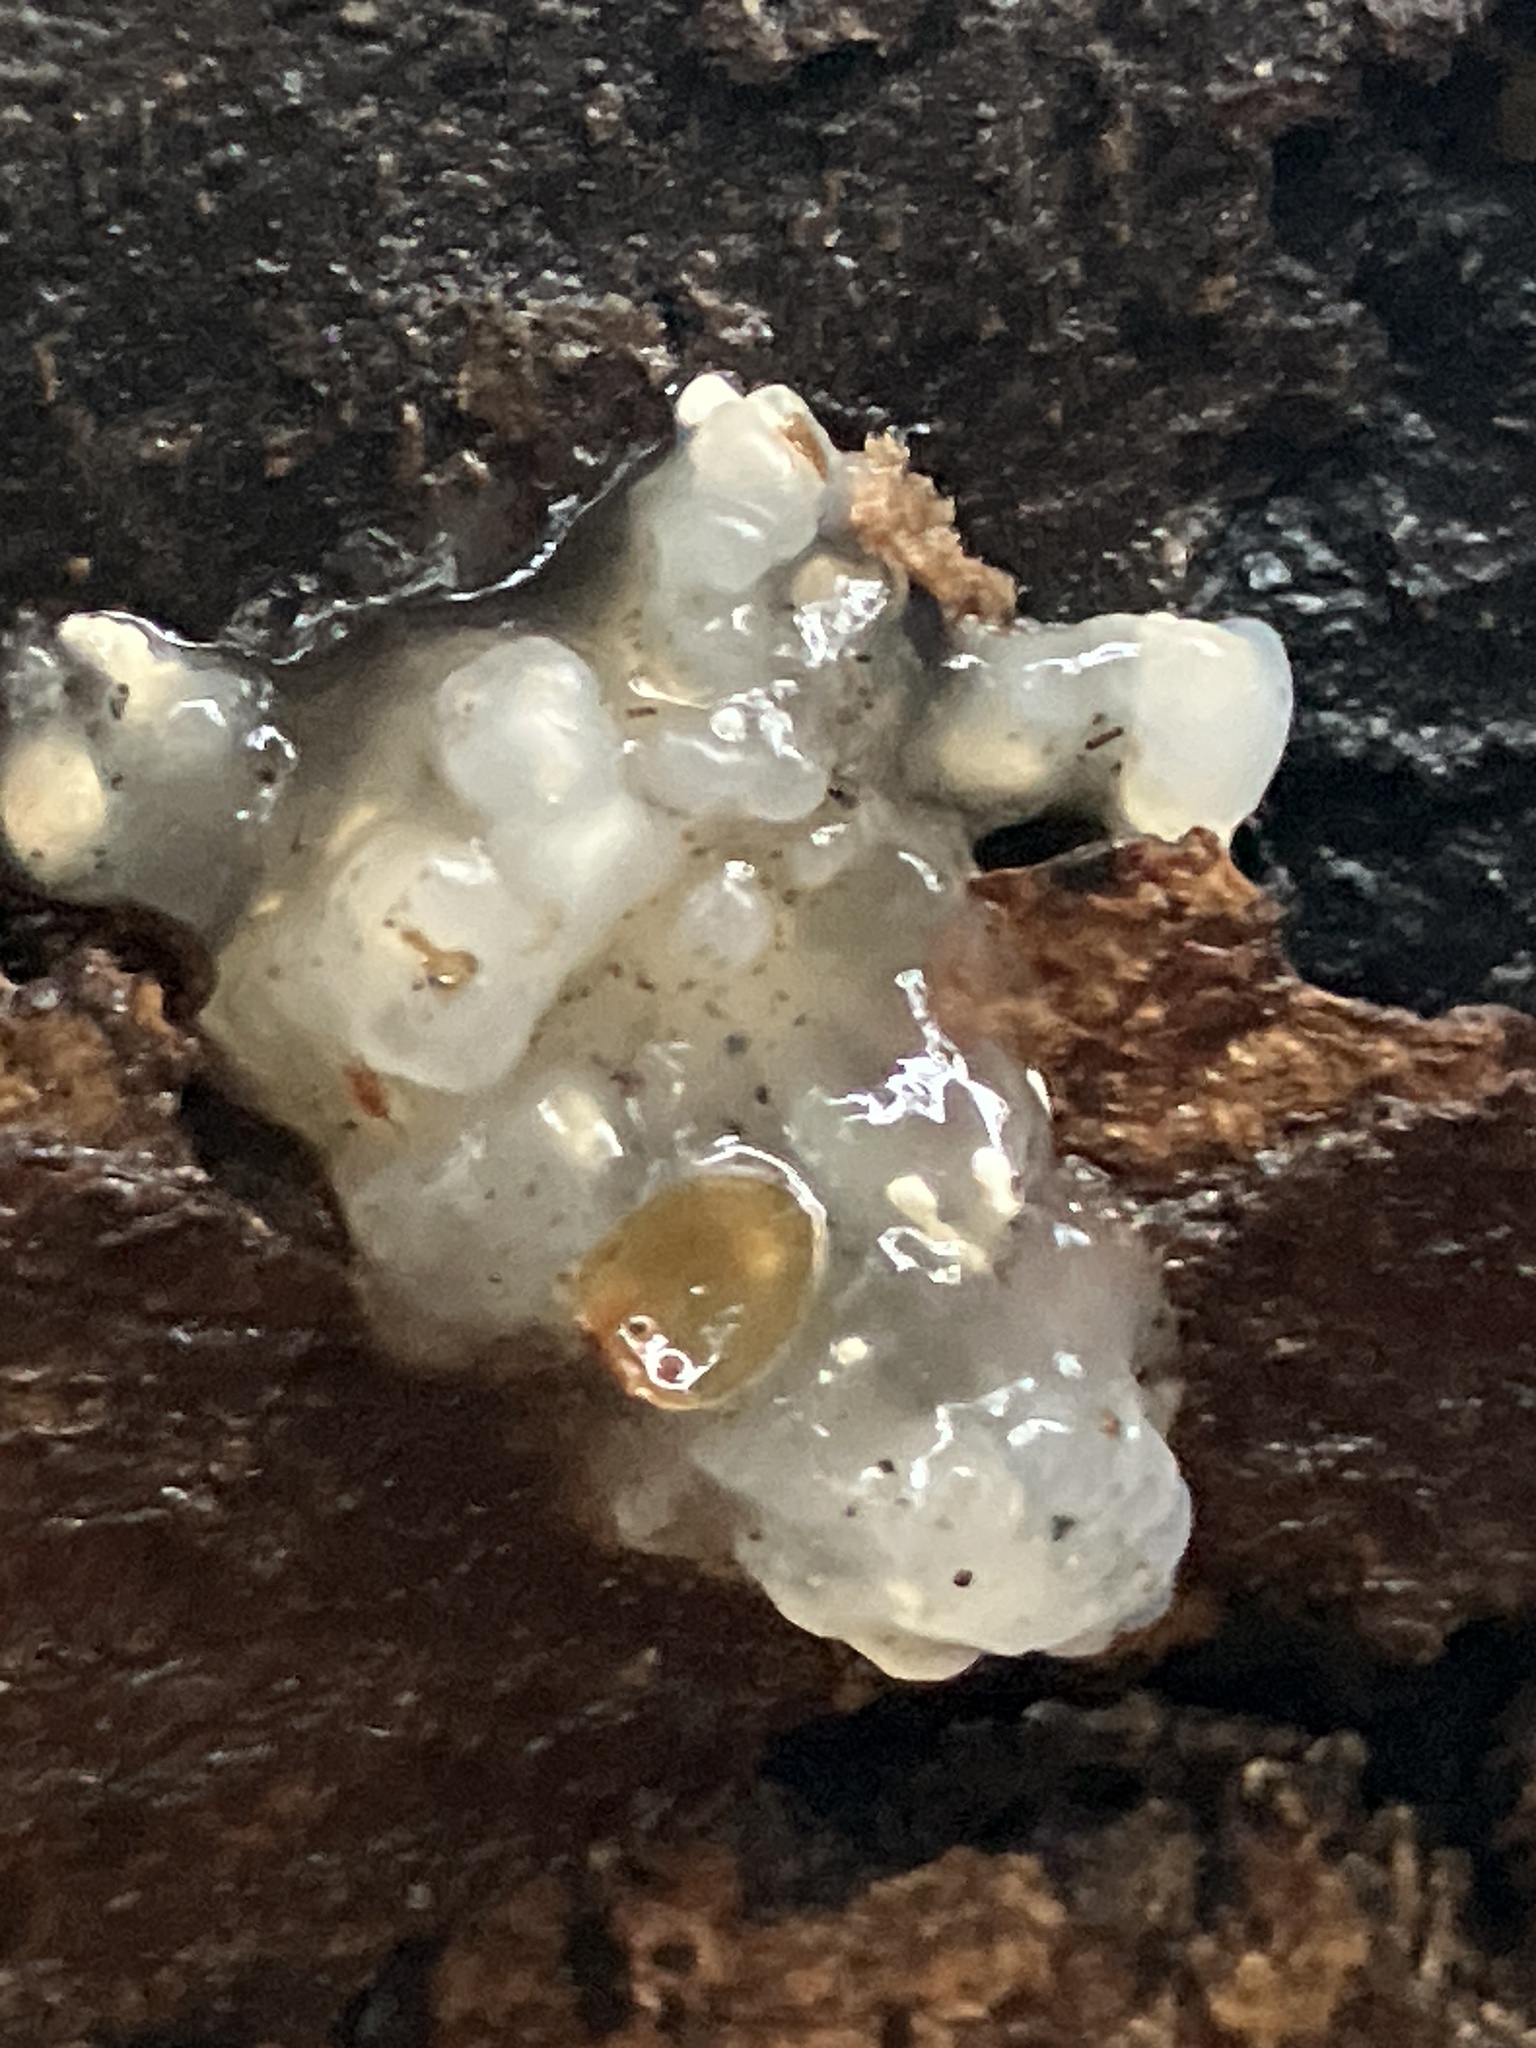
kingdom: Fungi
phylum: Basidiomycota
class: Agaricomycetes
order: Auriculariales
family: Hyaloriaceae
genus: Myxarium
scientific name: Myxarium nucleatum
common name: Crystal brain fungus
